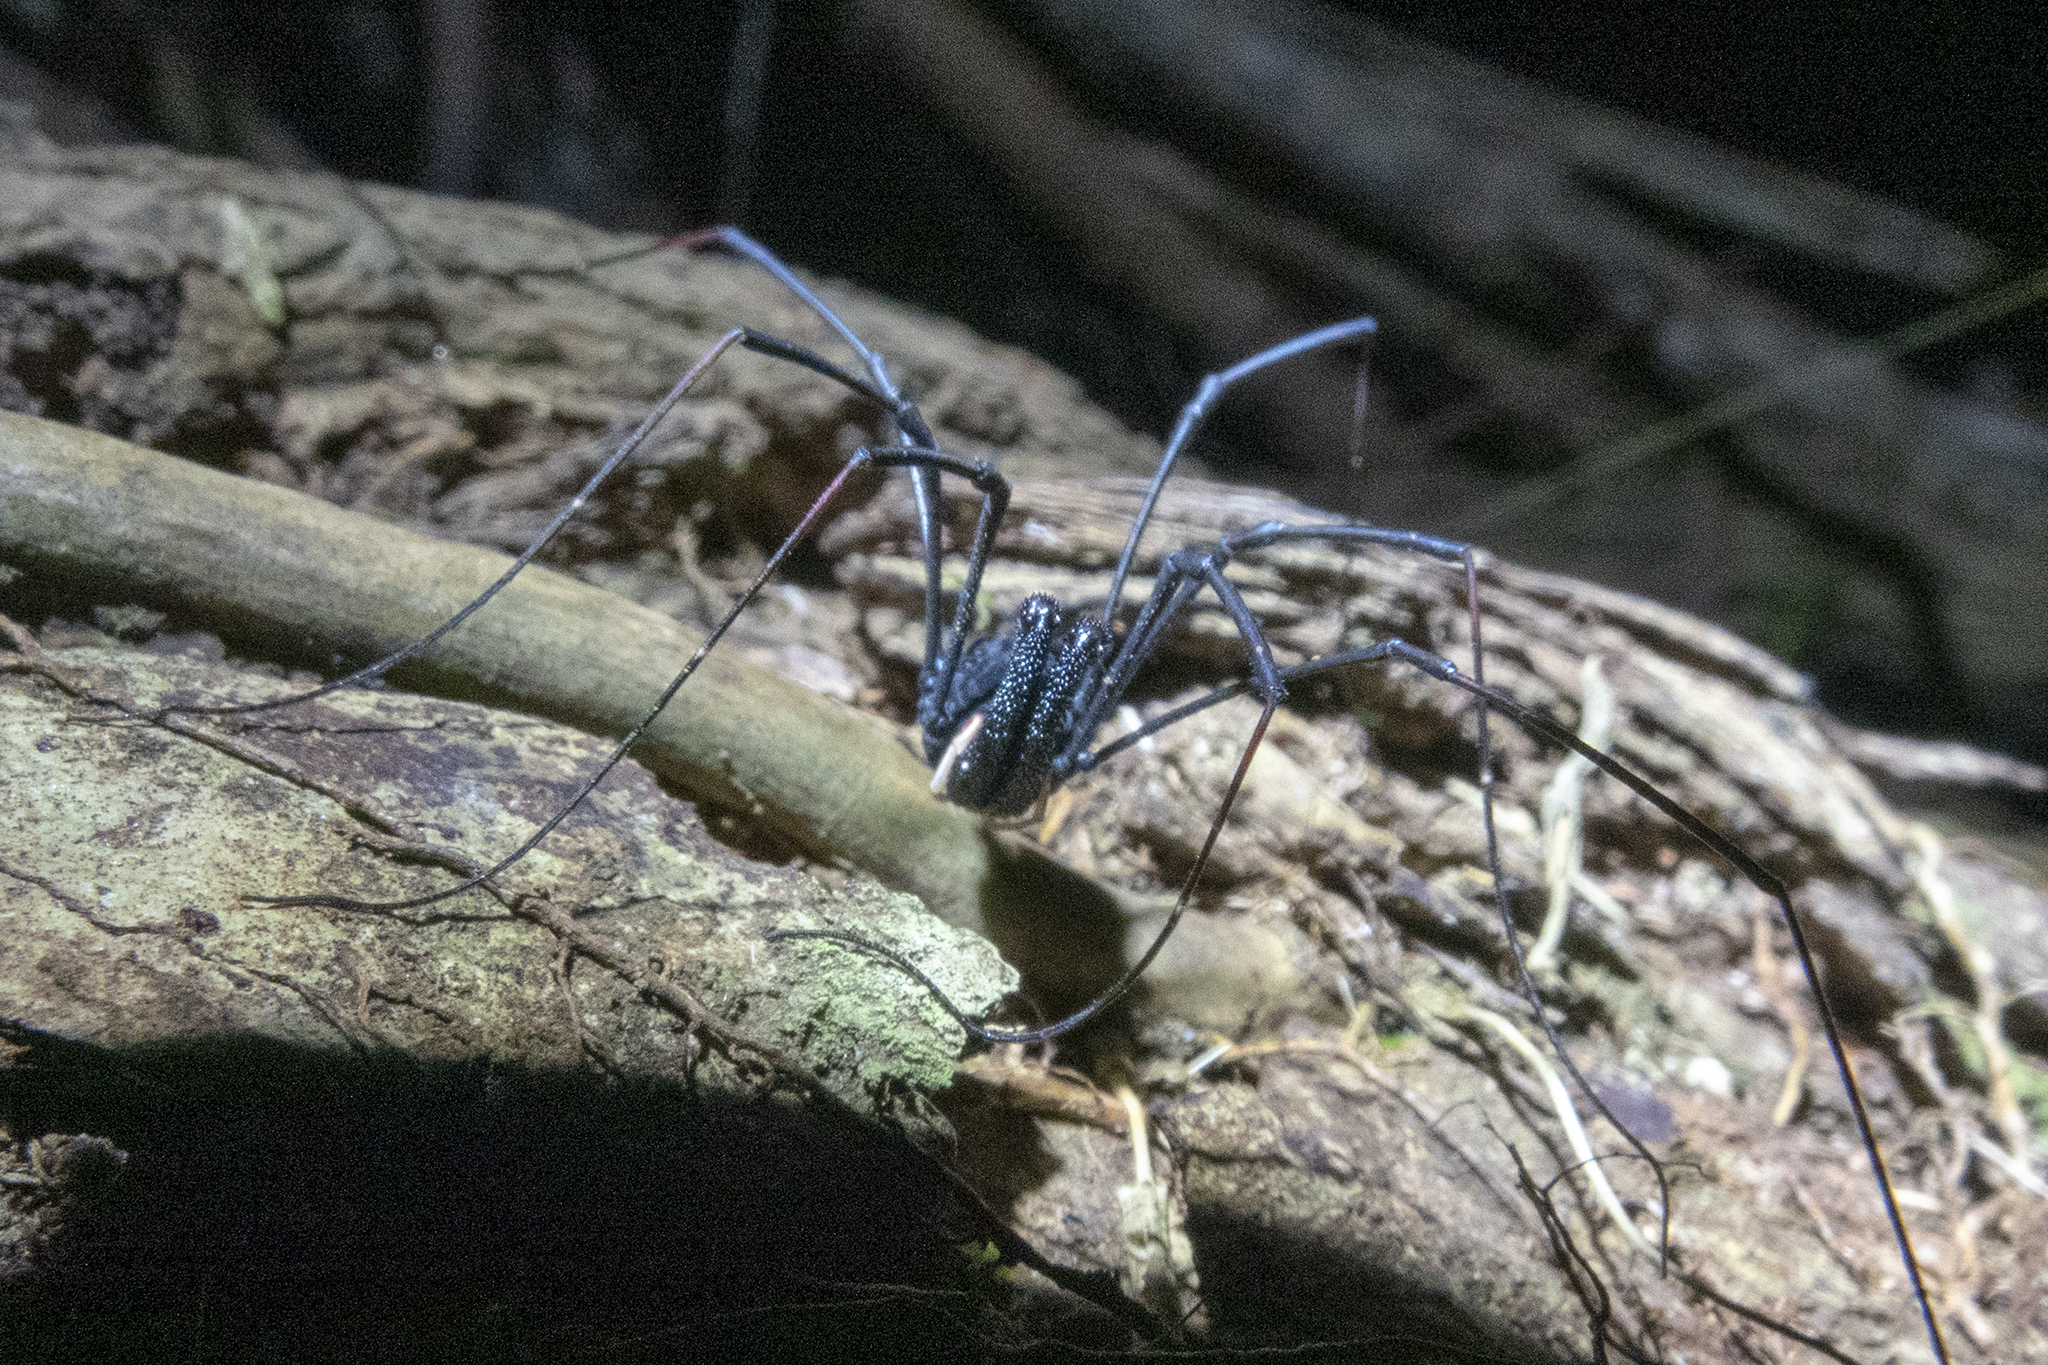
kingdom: Animalia
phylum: Arthropoda
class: Arachnida
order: Opiliones
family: Neopilionidae
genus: Forsteropsalis
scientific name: Forsteropsalis inconstans
